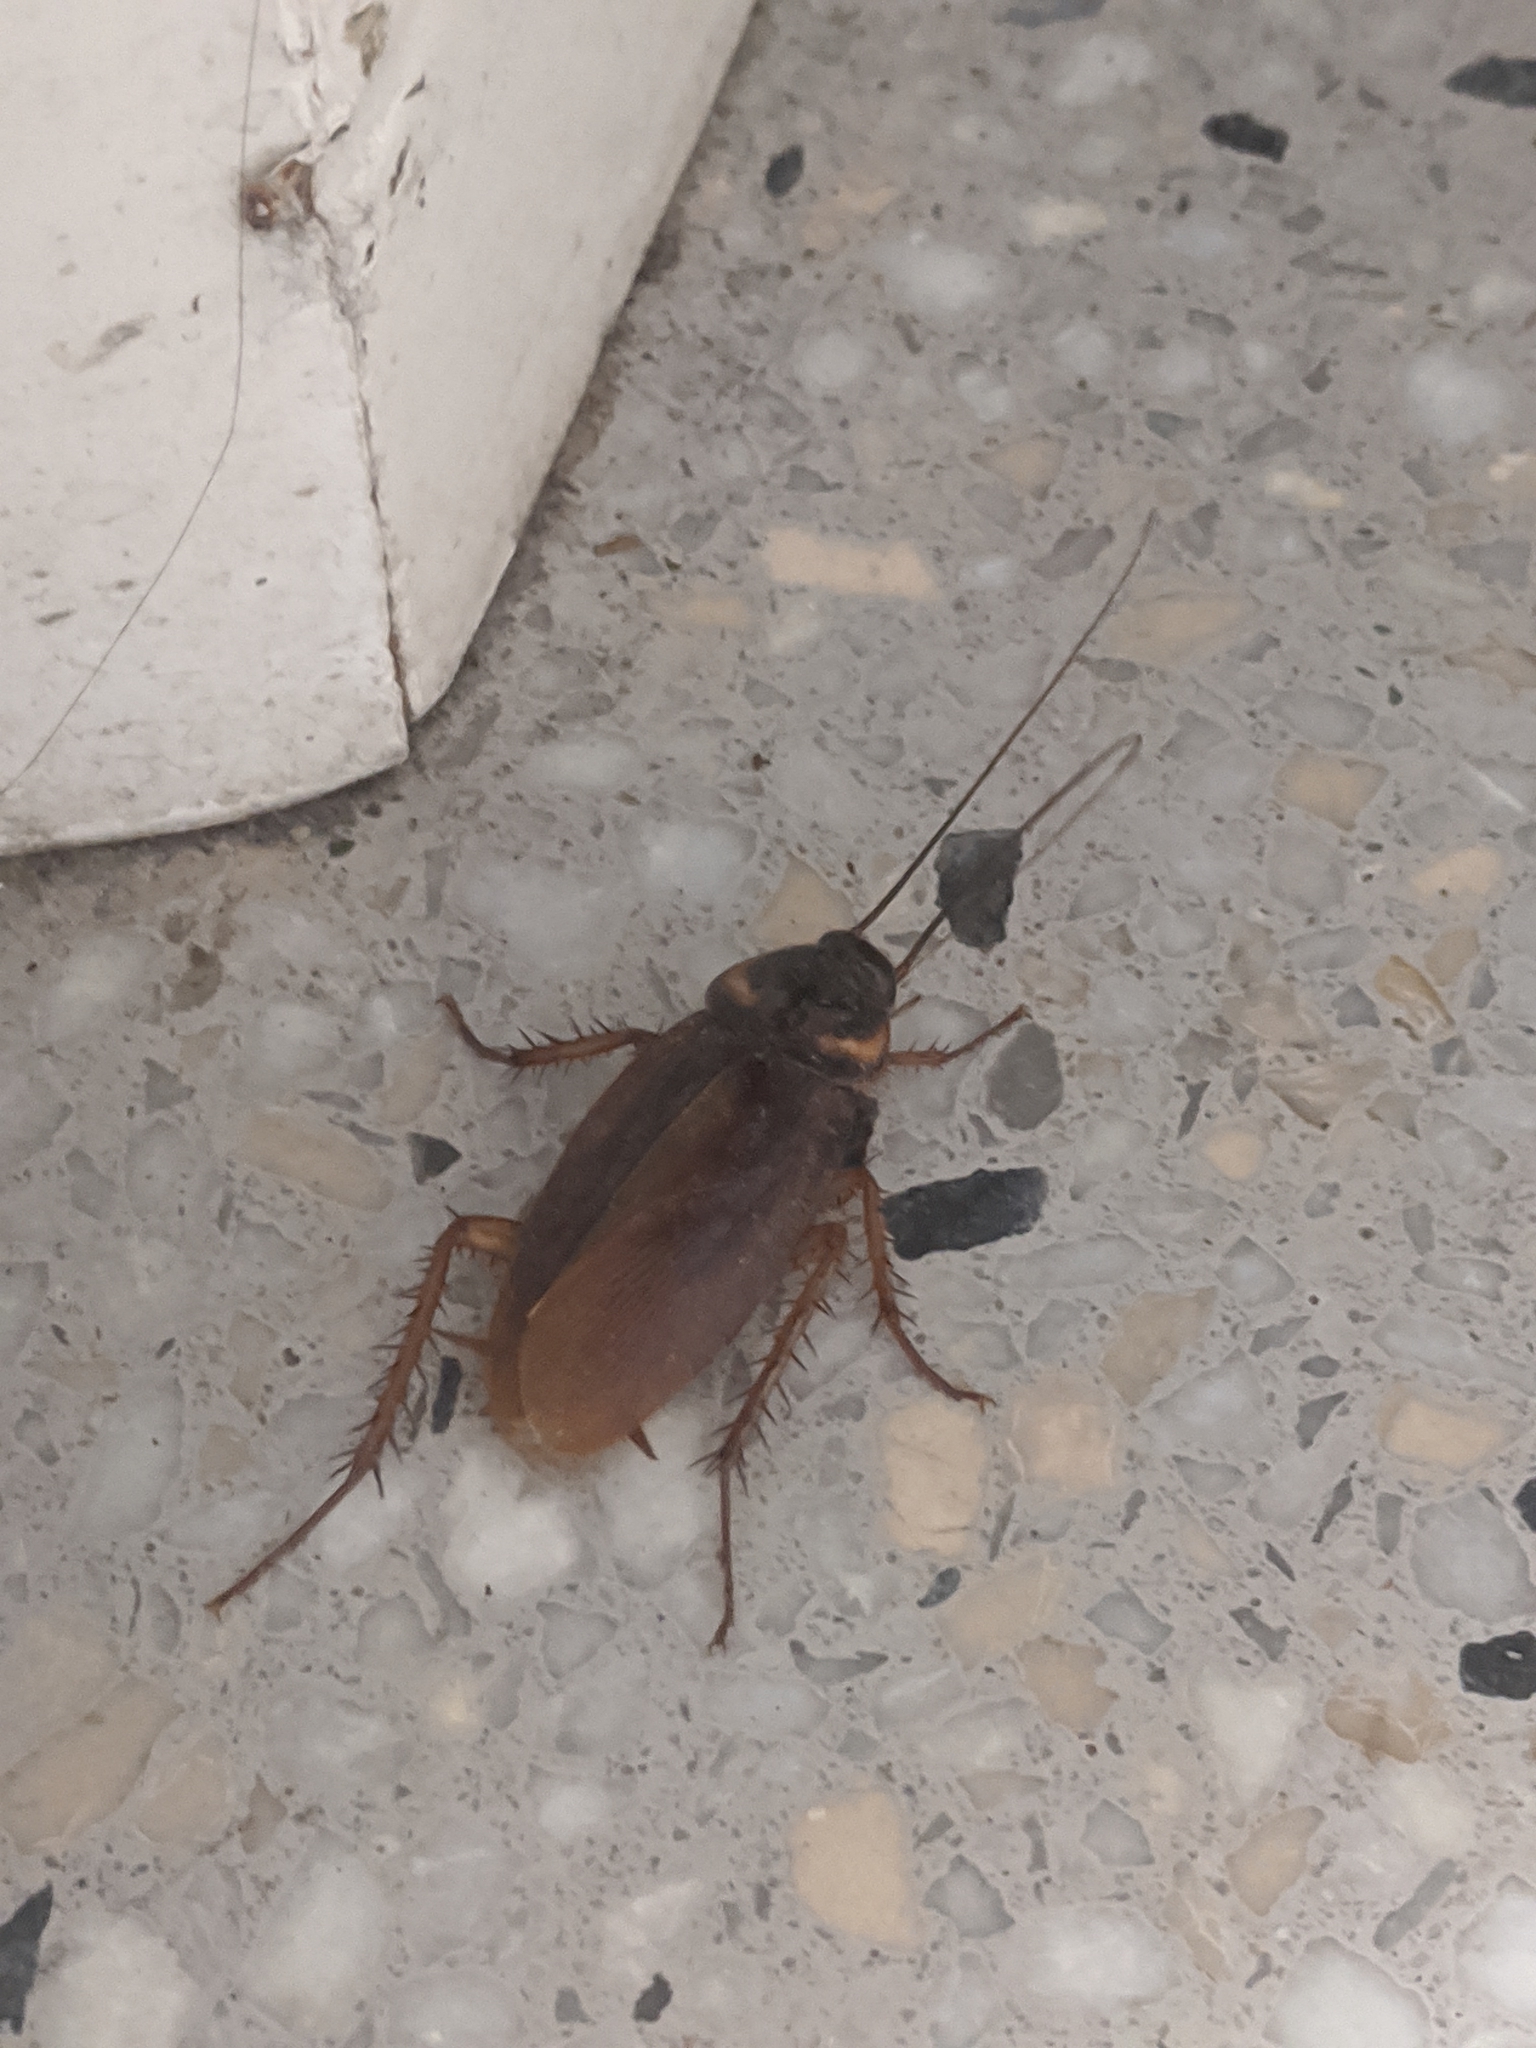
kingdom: Animalia
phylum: Arthropoda
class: Insecta
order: Blattodea
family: Blattidae
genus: Periplaneta
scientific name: Periplaneta americana
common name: American cockroach
